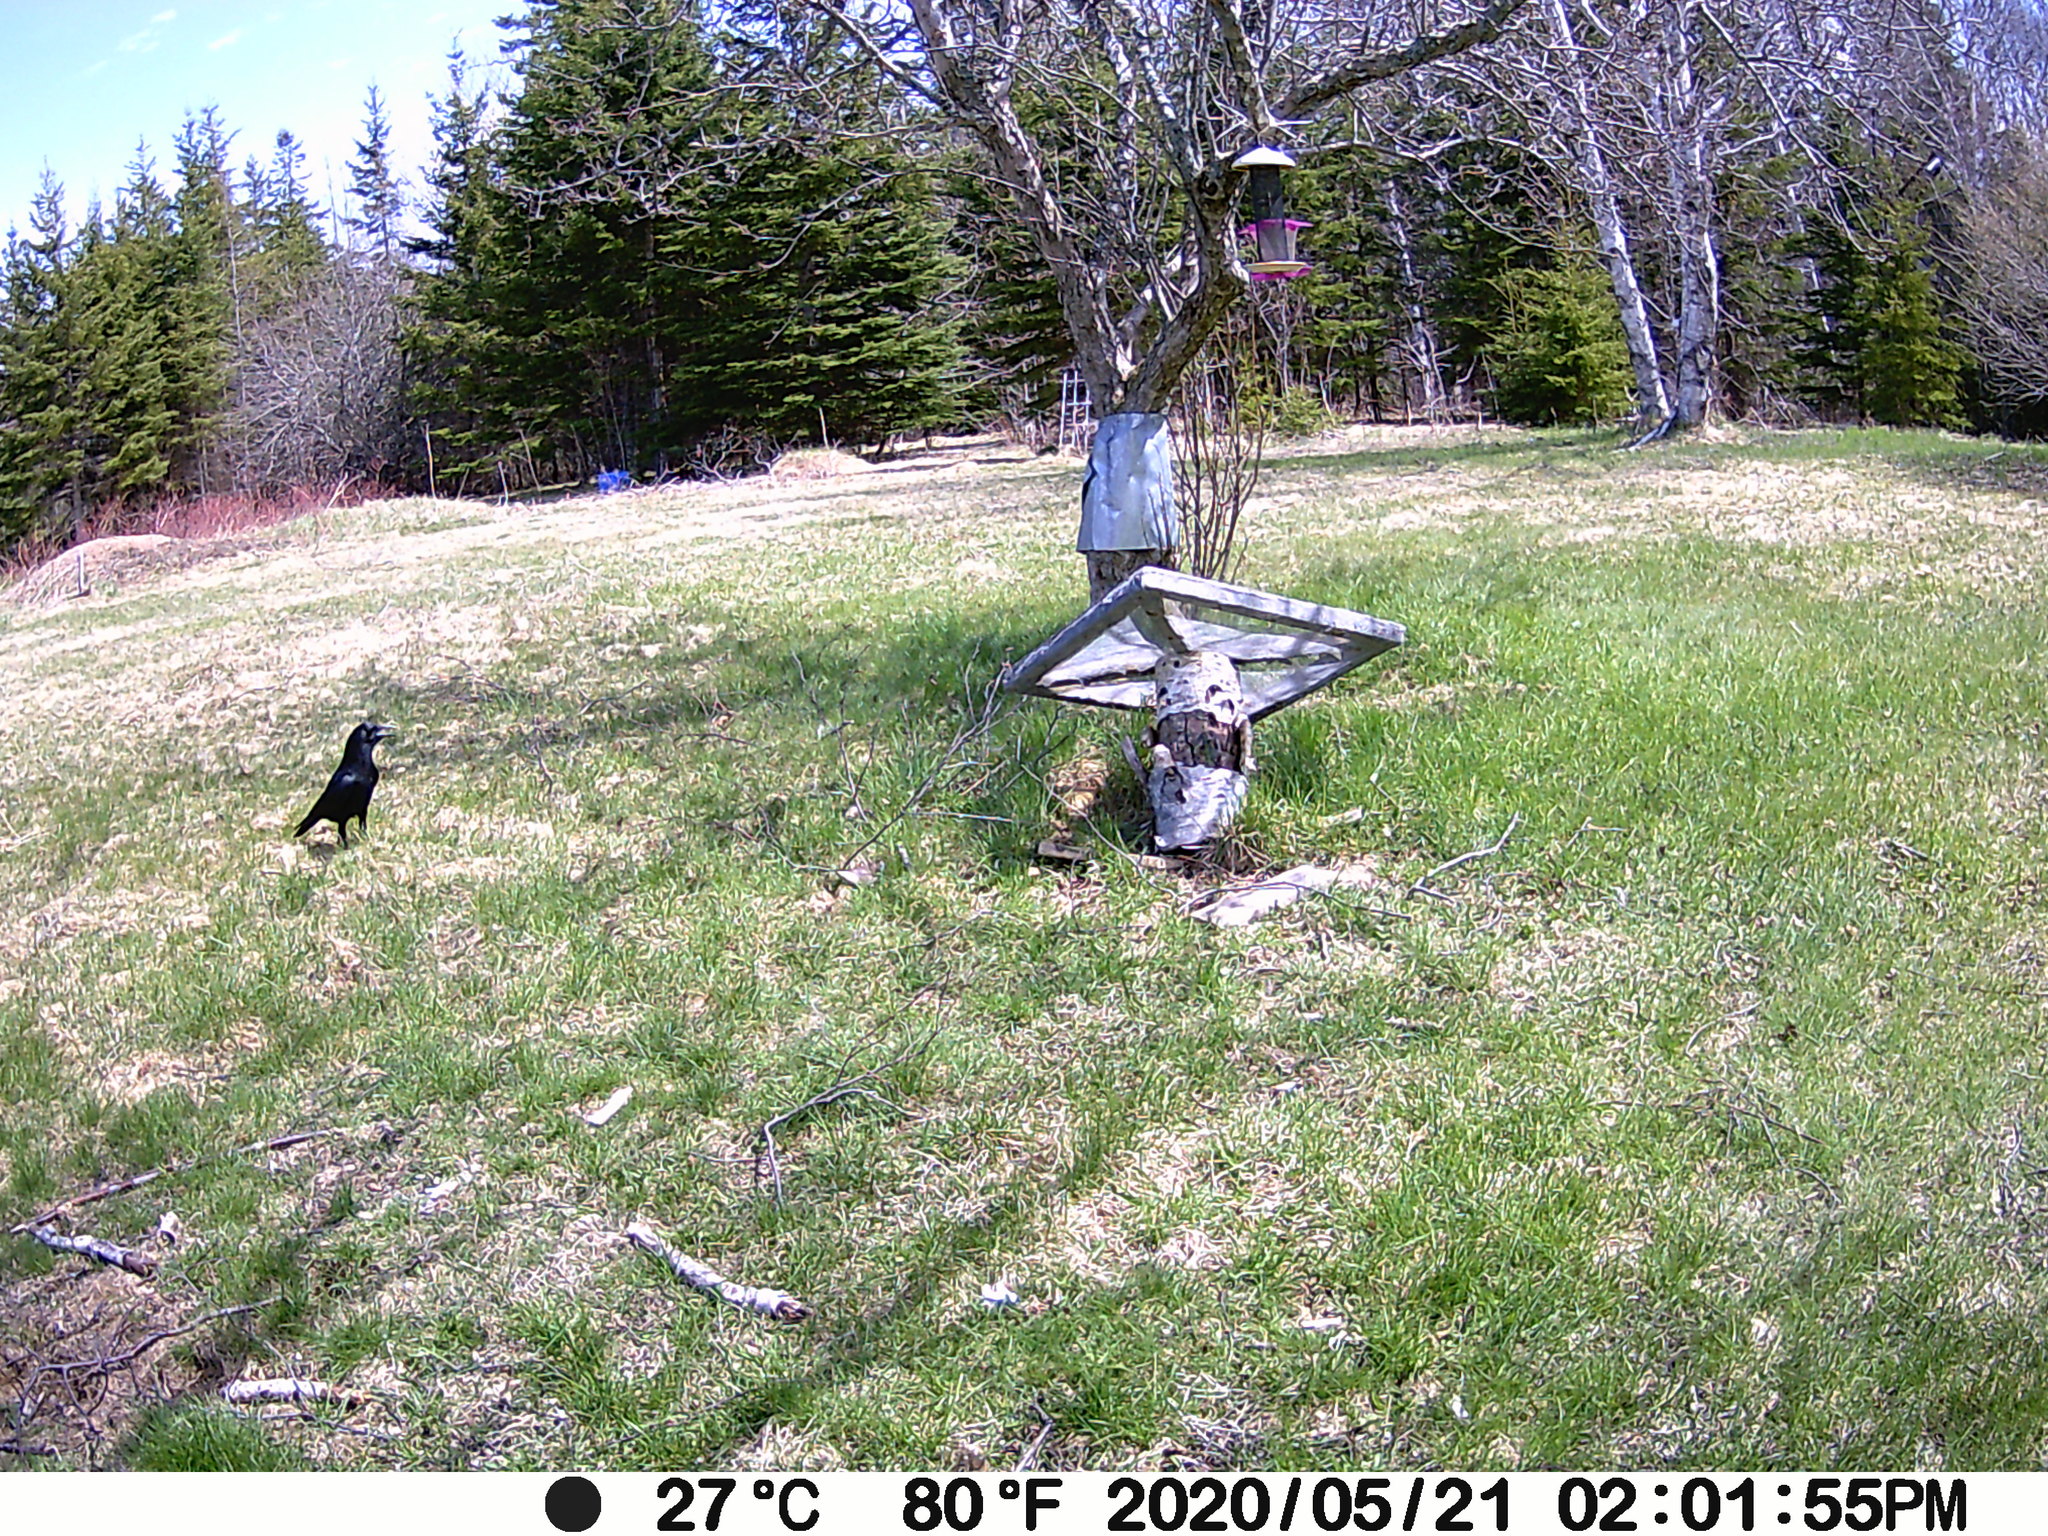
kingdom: Animalia
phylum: Chordata
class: Aves
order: Passeriformes
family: Corvidae
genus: Corvus
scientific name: Corvus brachyrhynchos
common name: American crow
